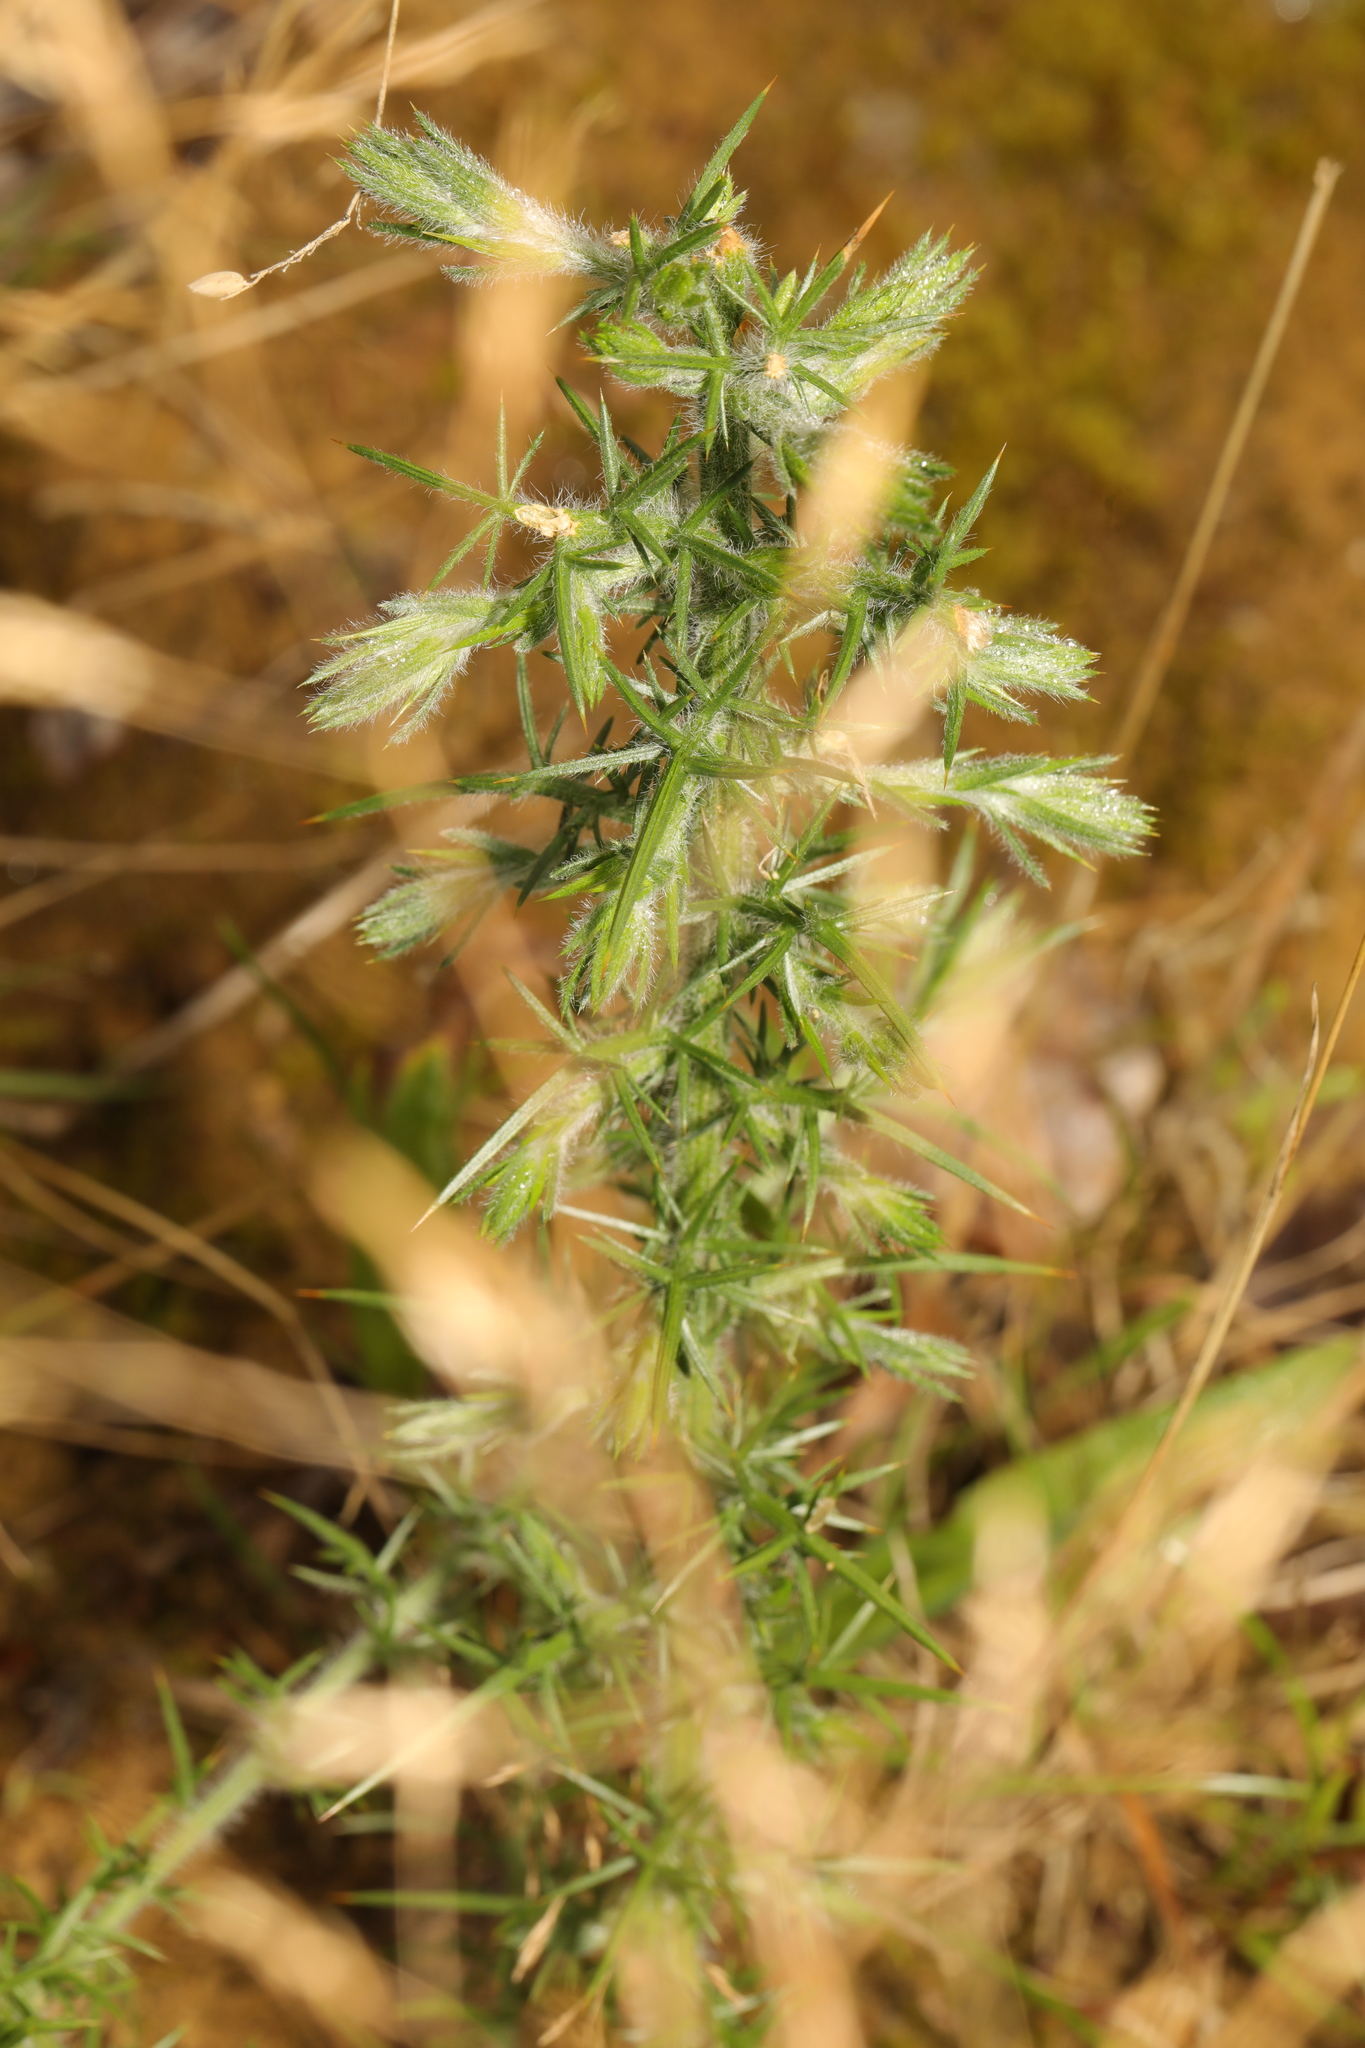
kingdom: Plantae
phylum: Tracheophyta
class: Magnoliopsida
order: Fabales
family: Fabaceae
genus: Ulex
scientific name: Ulex europaeus
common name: Common gorse
